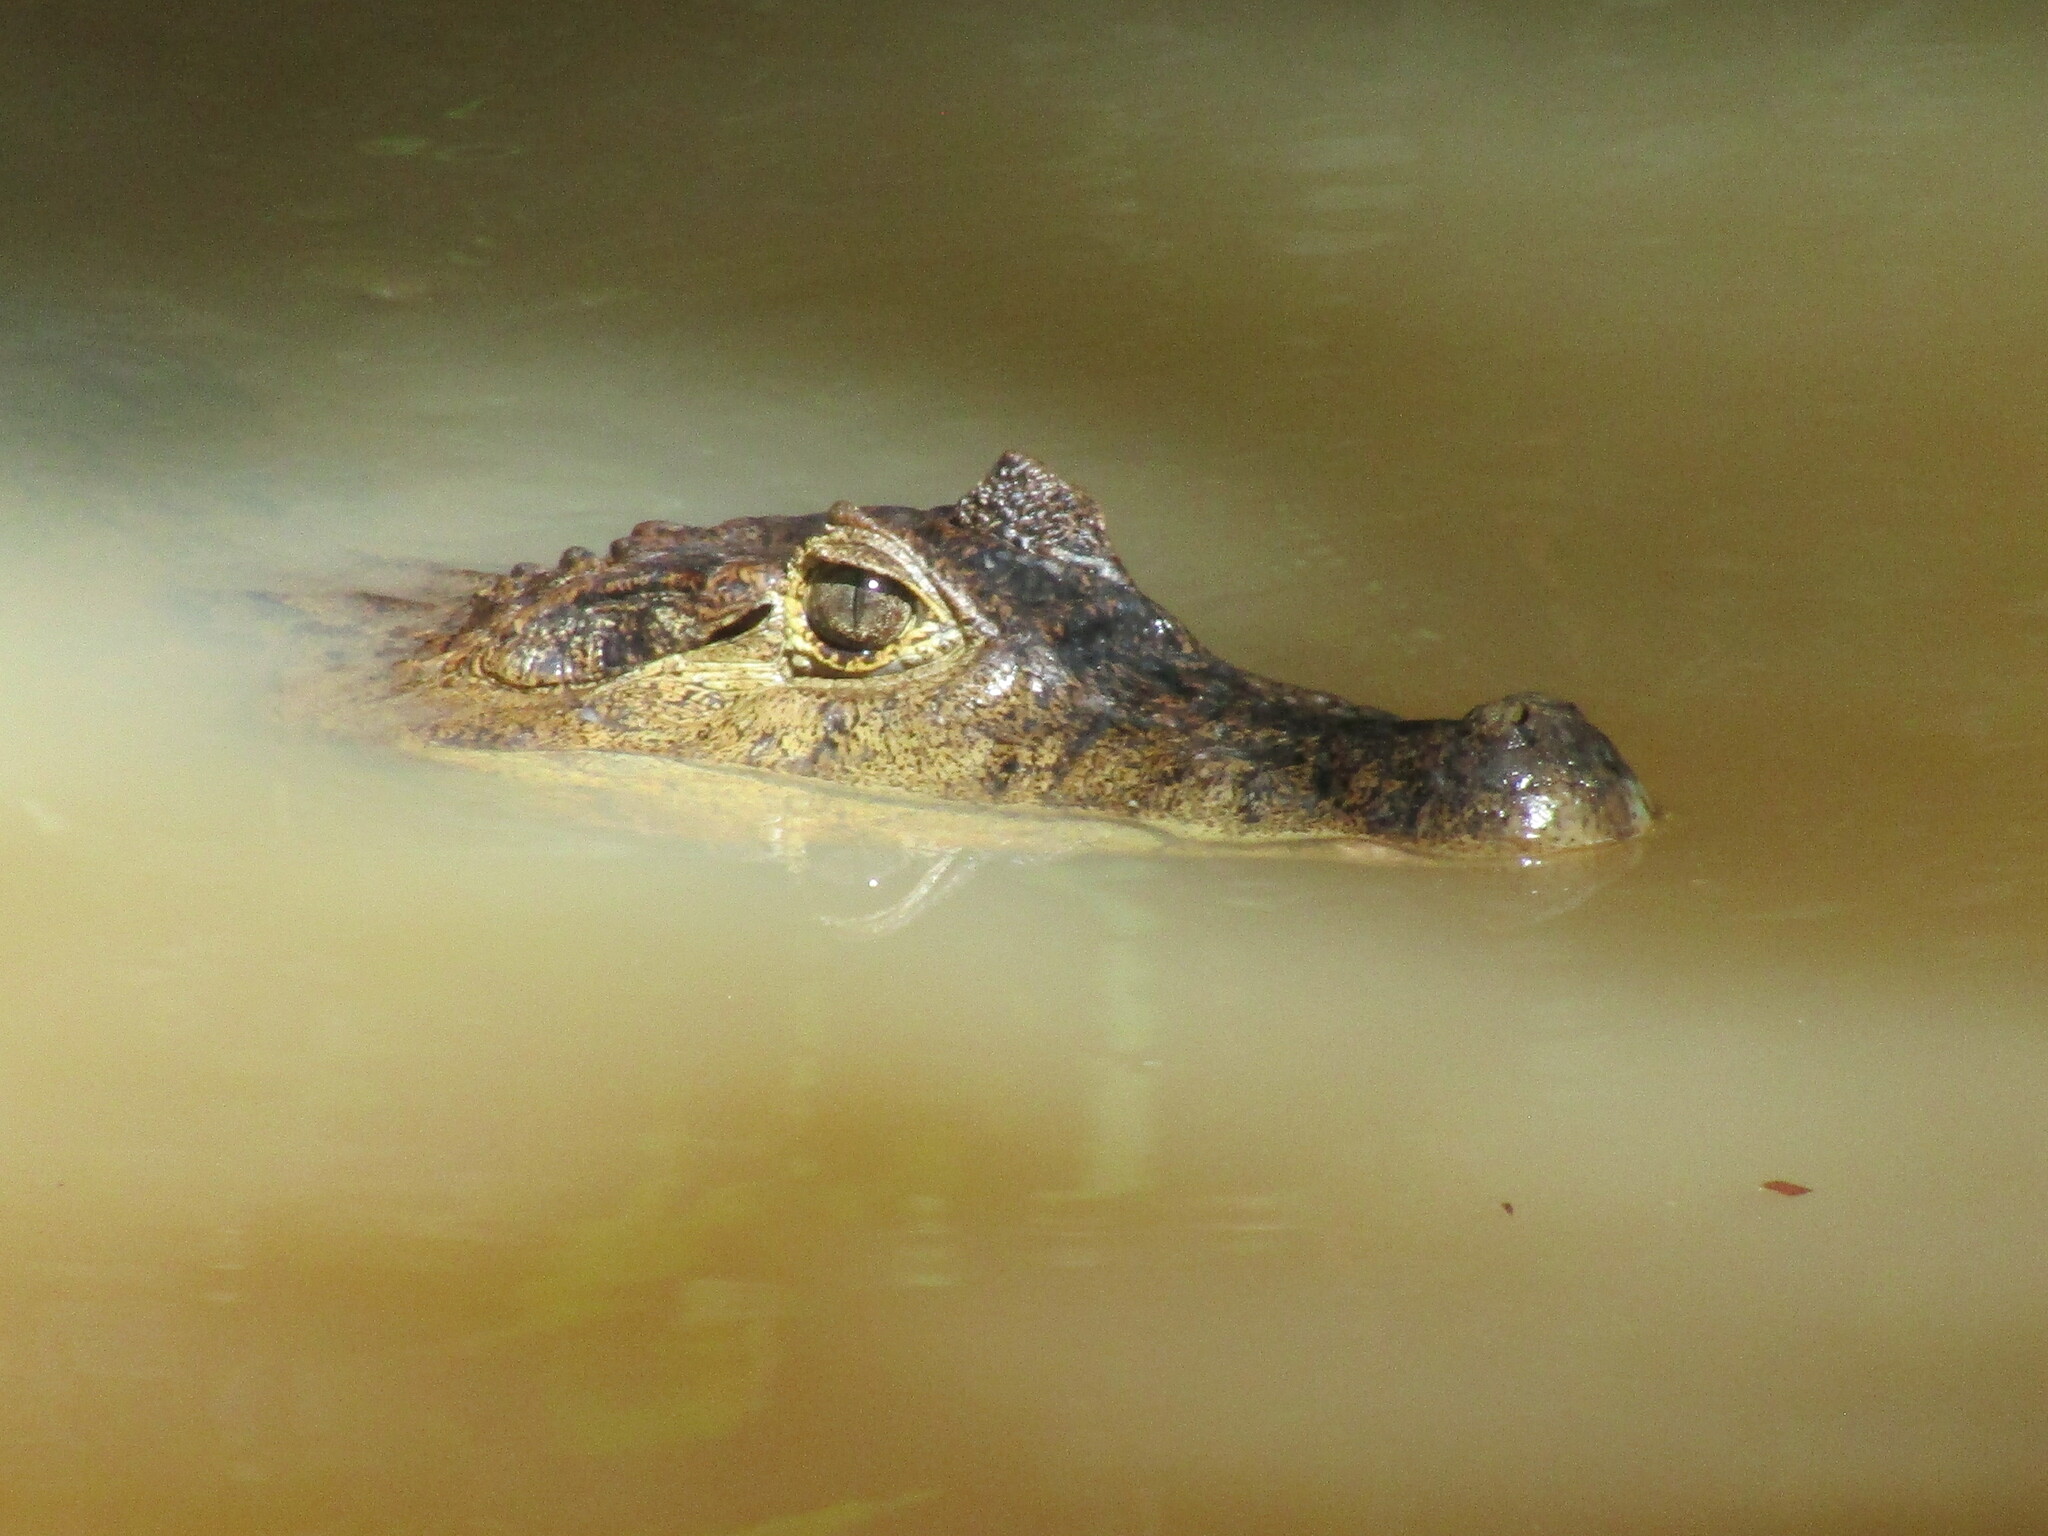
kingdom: Animalia
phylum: Chordata
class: Crocodylia
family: Alligatoridae
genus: Caiman
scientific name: Caiman crocodilus
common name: Common caiman
